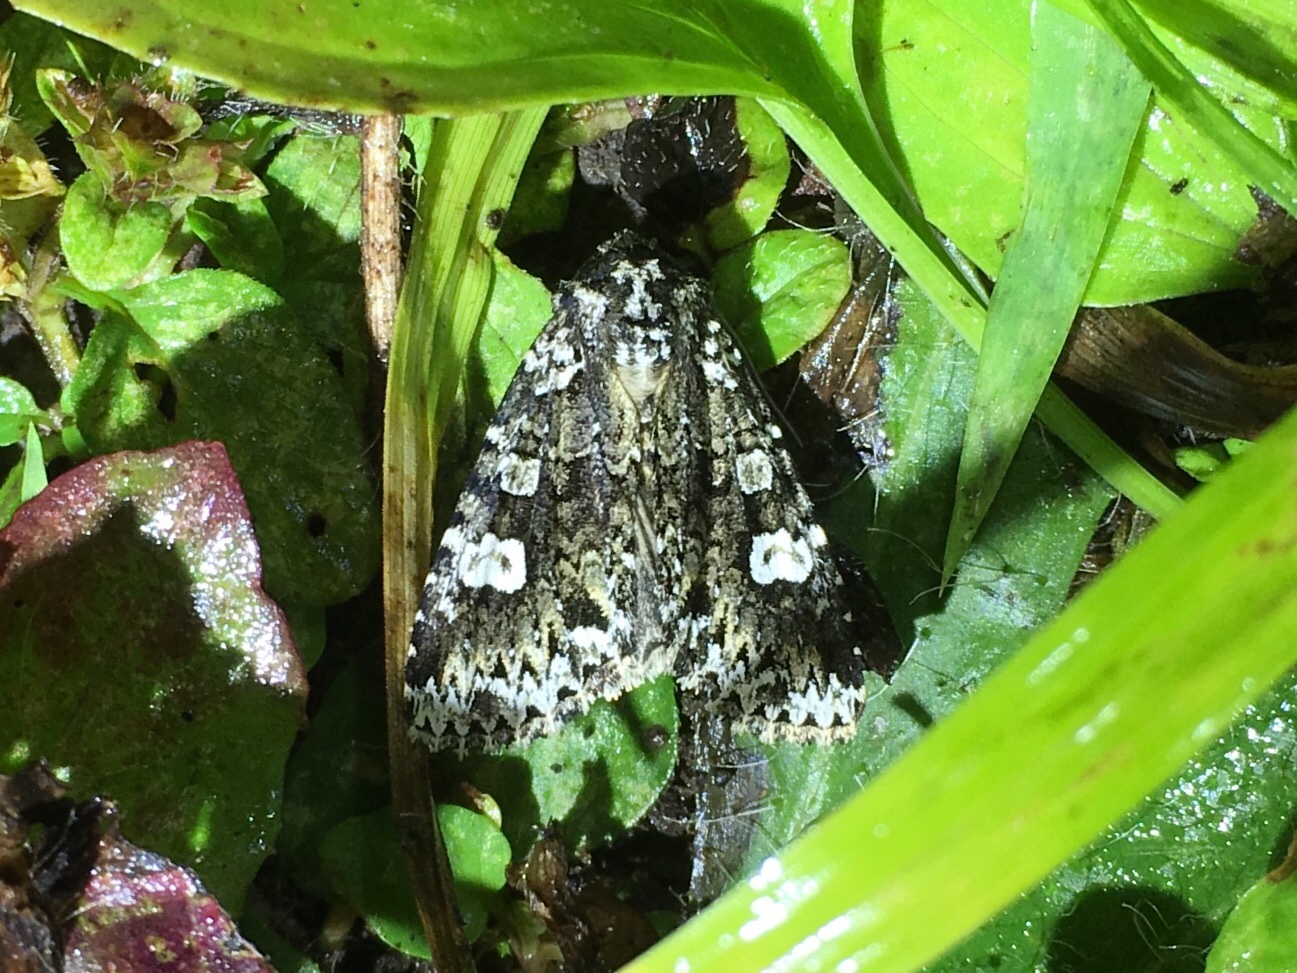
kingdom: Animalia
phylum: Arthropoda
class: Insecta
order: Lepidoptera
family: Noctuidae
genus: Melanchra
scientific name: Melanchra adjuncta
